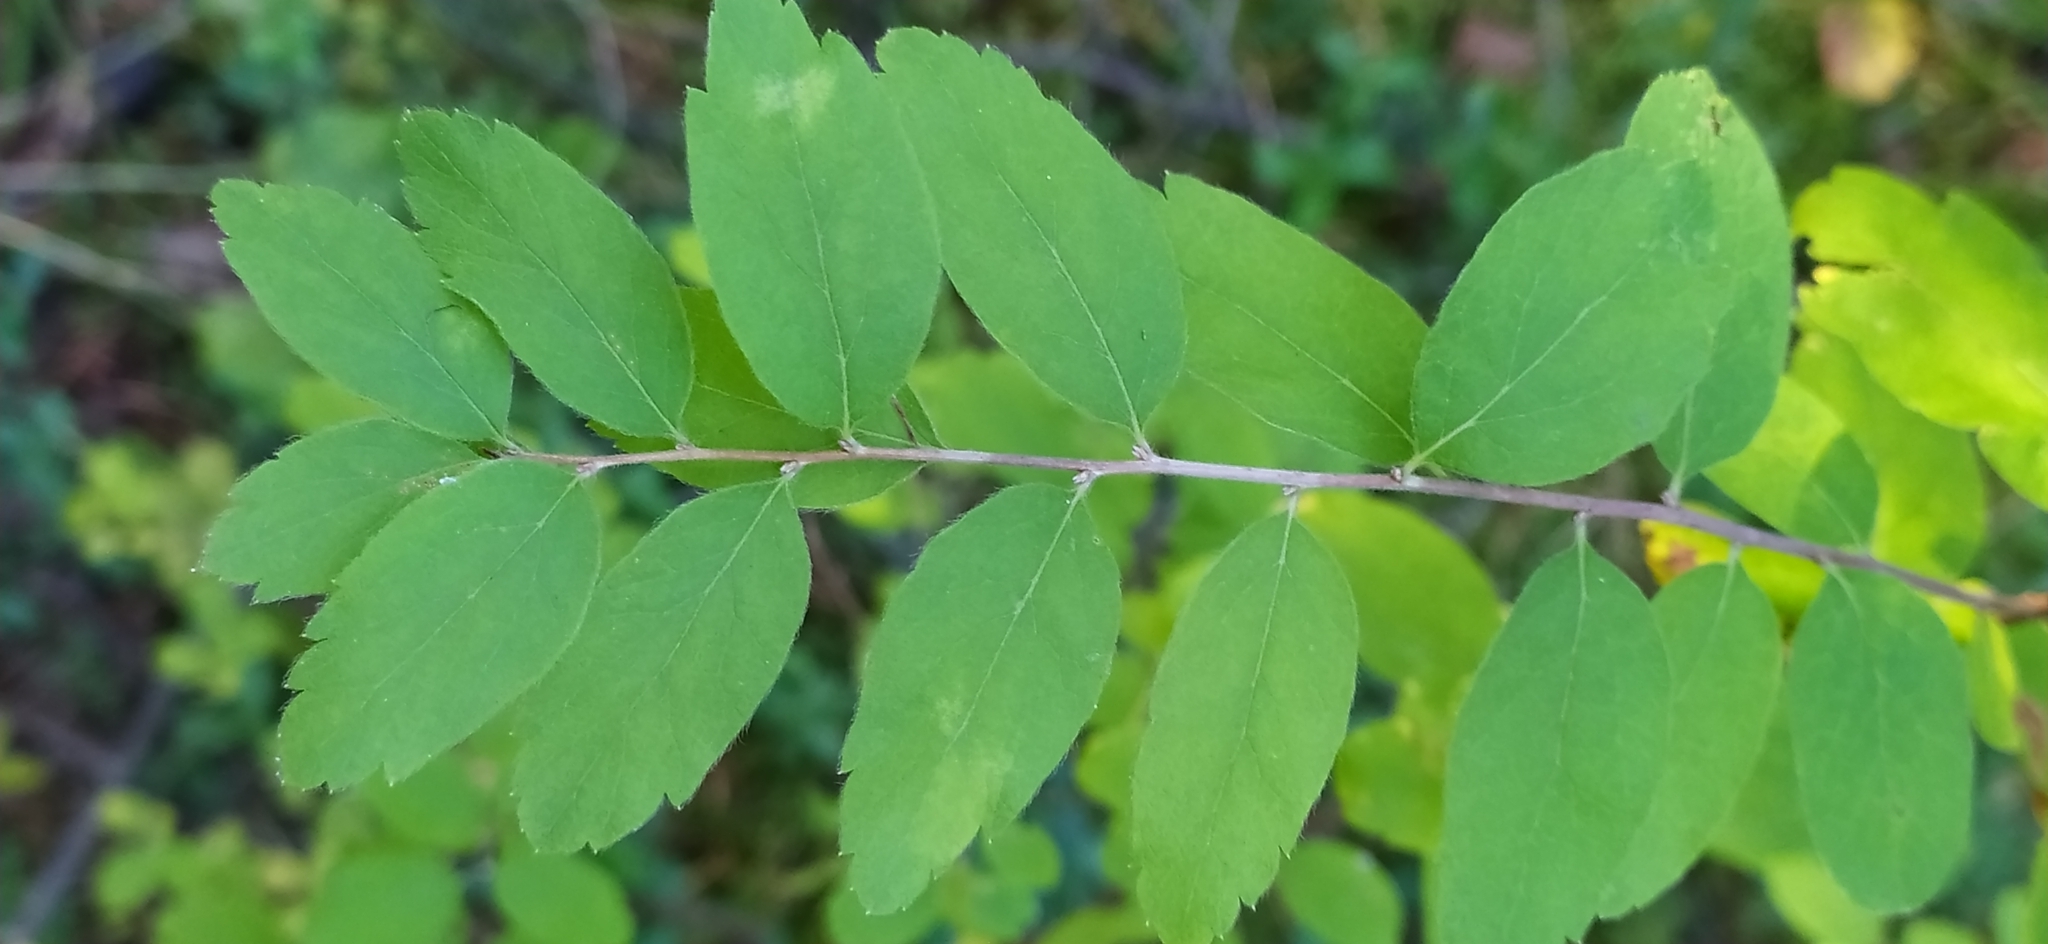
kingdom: Plantae
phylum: Tracheophyta
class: Magnoliopsida
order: Rosales
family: Rosaceae
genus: Spiraea
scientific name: Spiraea media
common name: Russian spiraea
